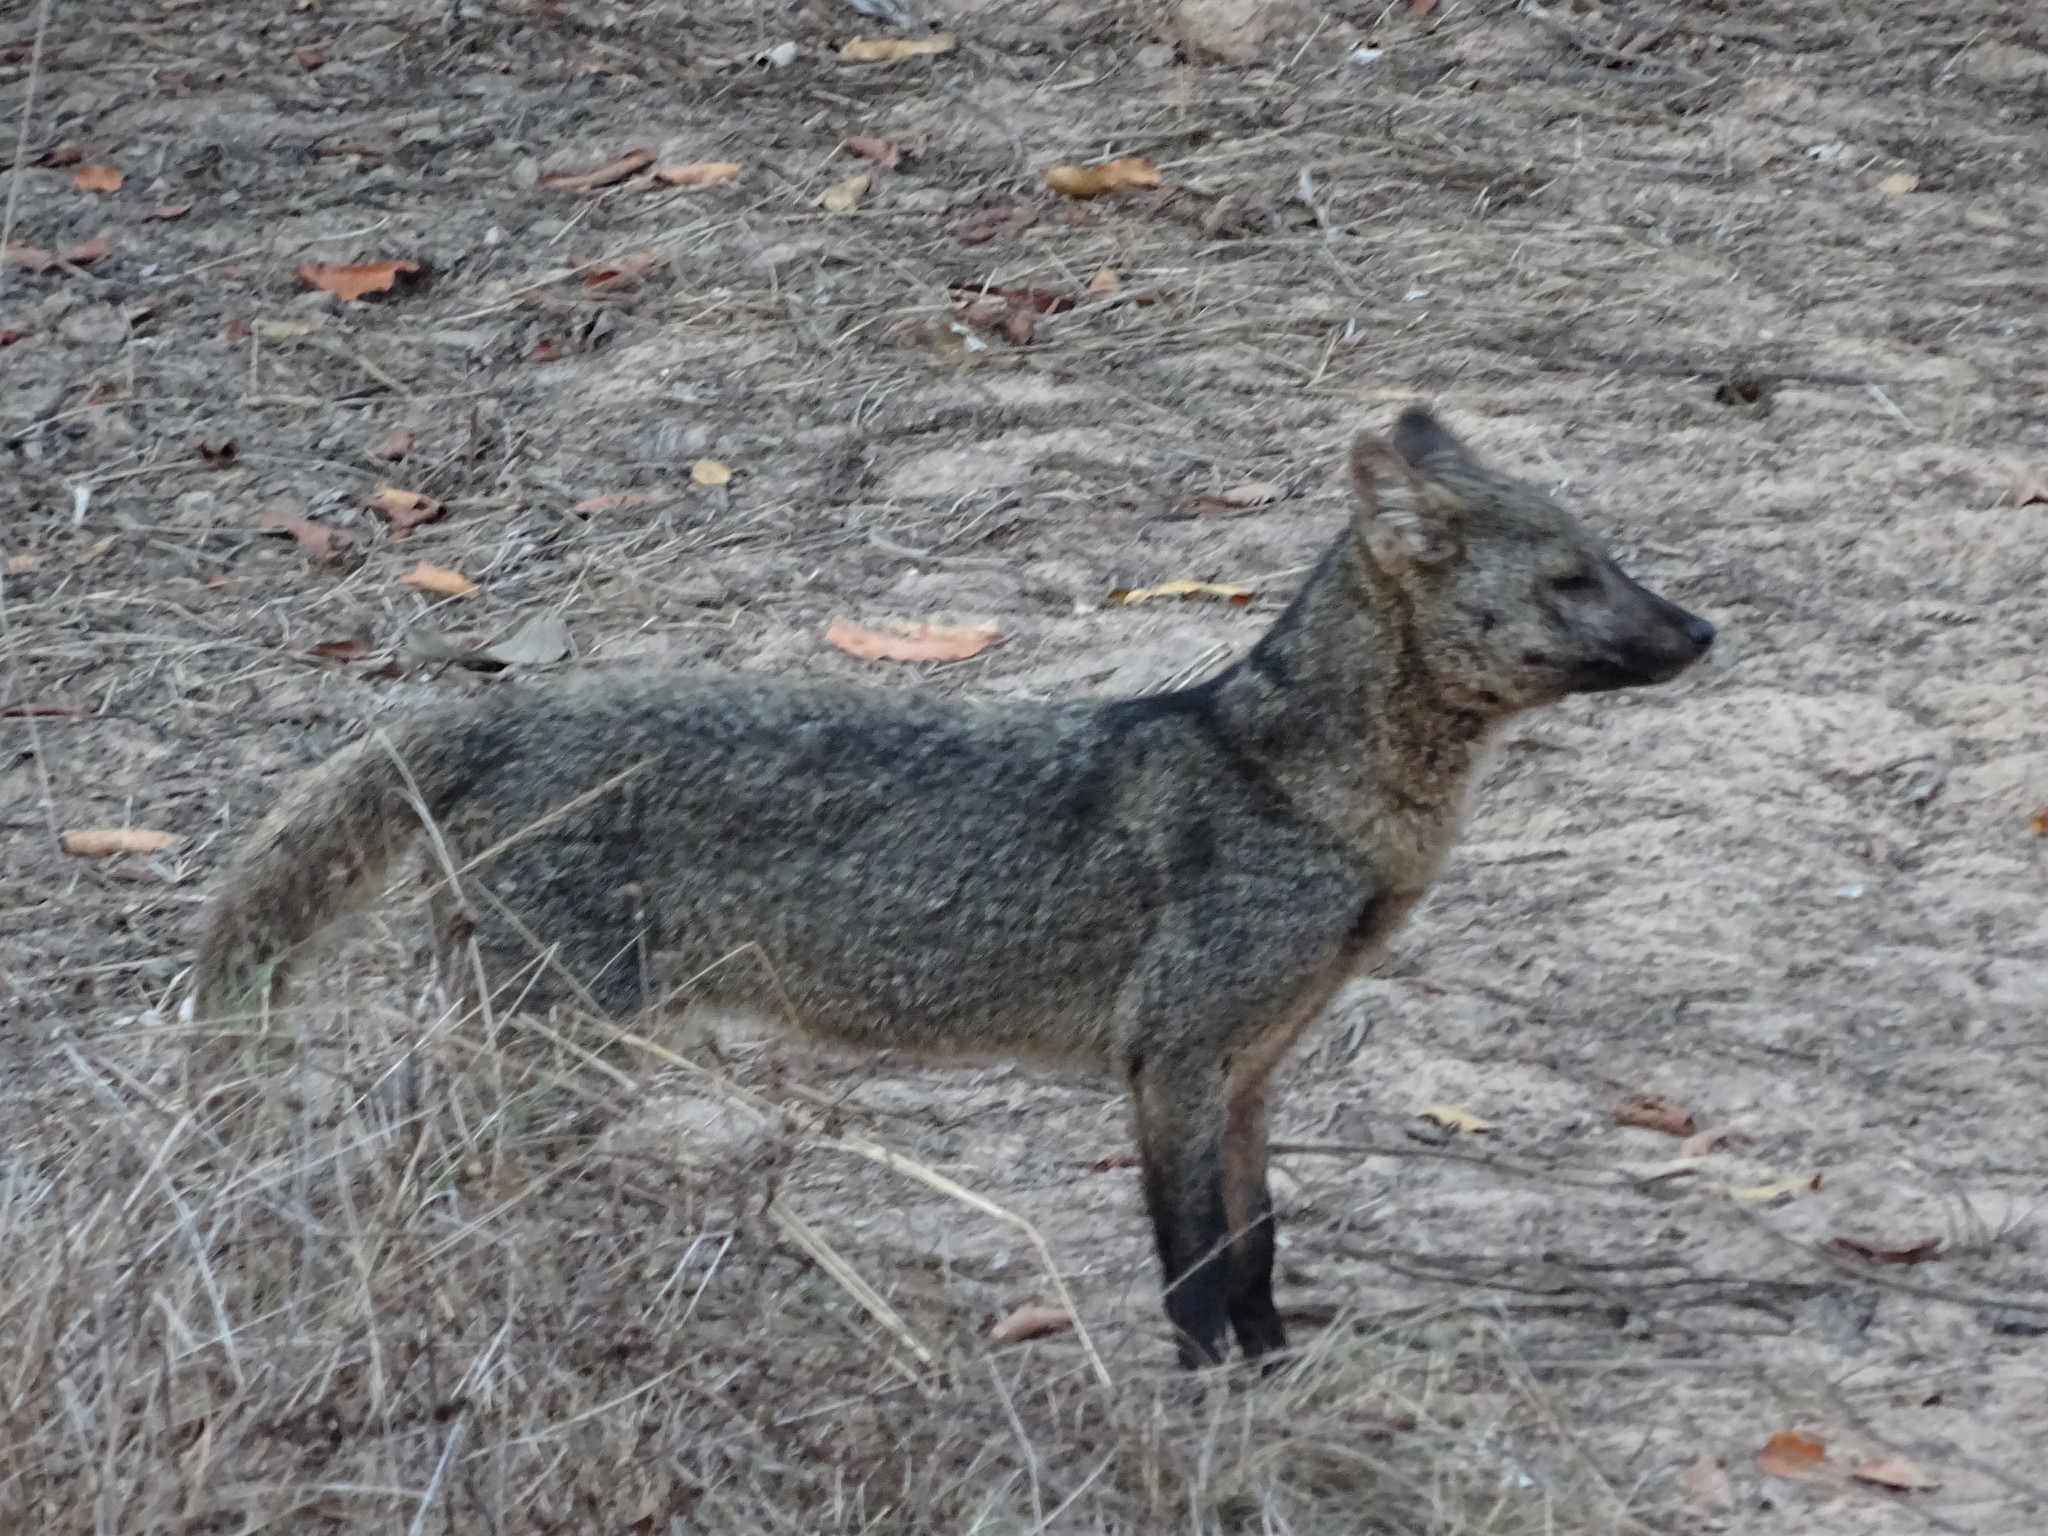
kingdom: Animalia
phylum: Chordata
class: Mammalia
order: Carnivora
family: Canidae
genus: Cerdocyon
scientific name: Cerdocyon thous
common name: Crab-eating fox
